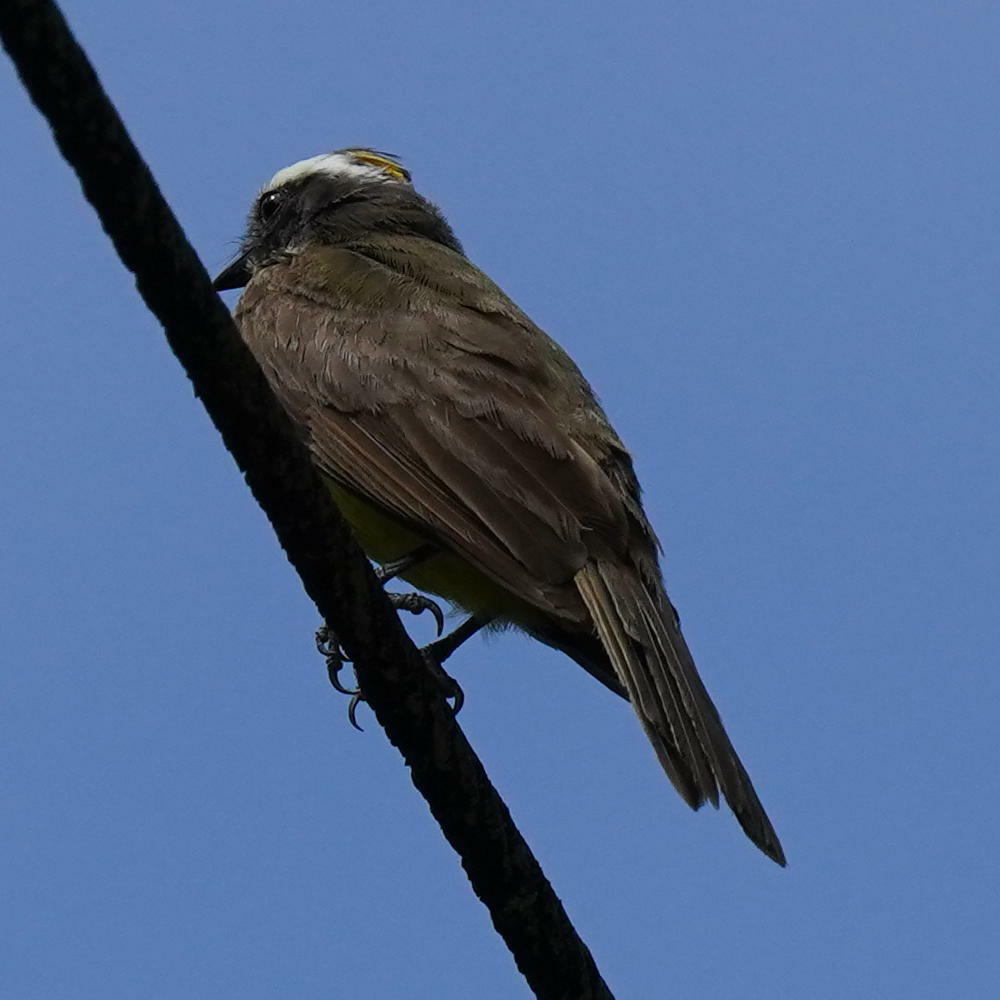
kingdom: Animalia
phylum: Chordata
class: Aves
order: Passeriformes
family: Tyrannidae
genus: Myiozetetes
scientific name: Myiozetetes cayanensis
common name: Rusty-margined flycatcher
